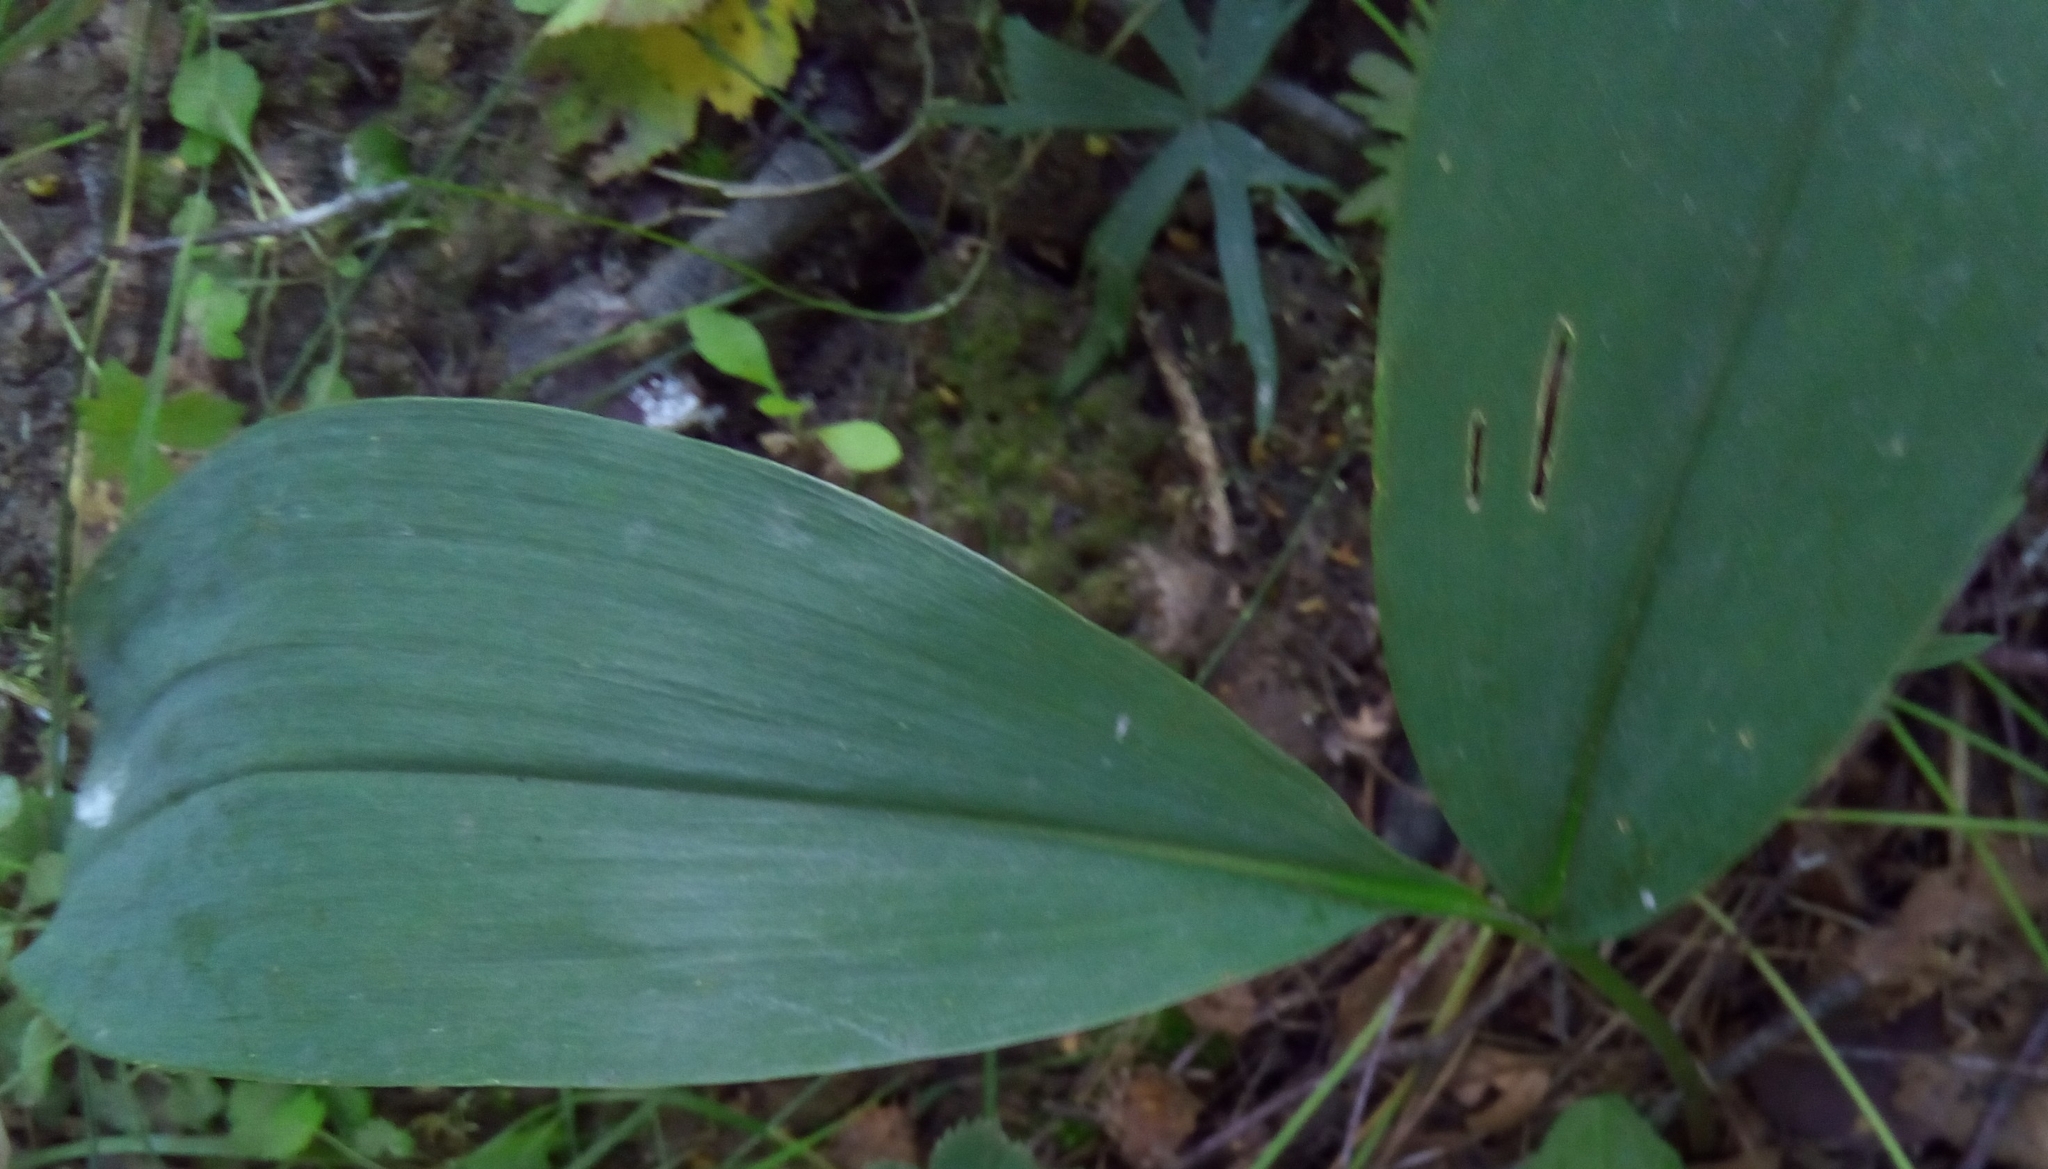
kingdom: Plantae
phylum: Tracheophyta
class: Liliopsida
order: Asparagales
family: Asparagaceae
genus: Convallaria
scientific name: Convallaria majalis
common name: Lily-of-the-valley
